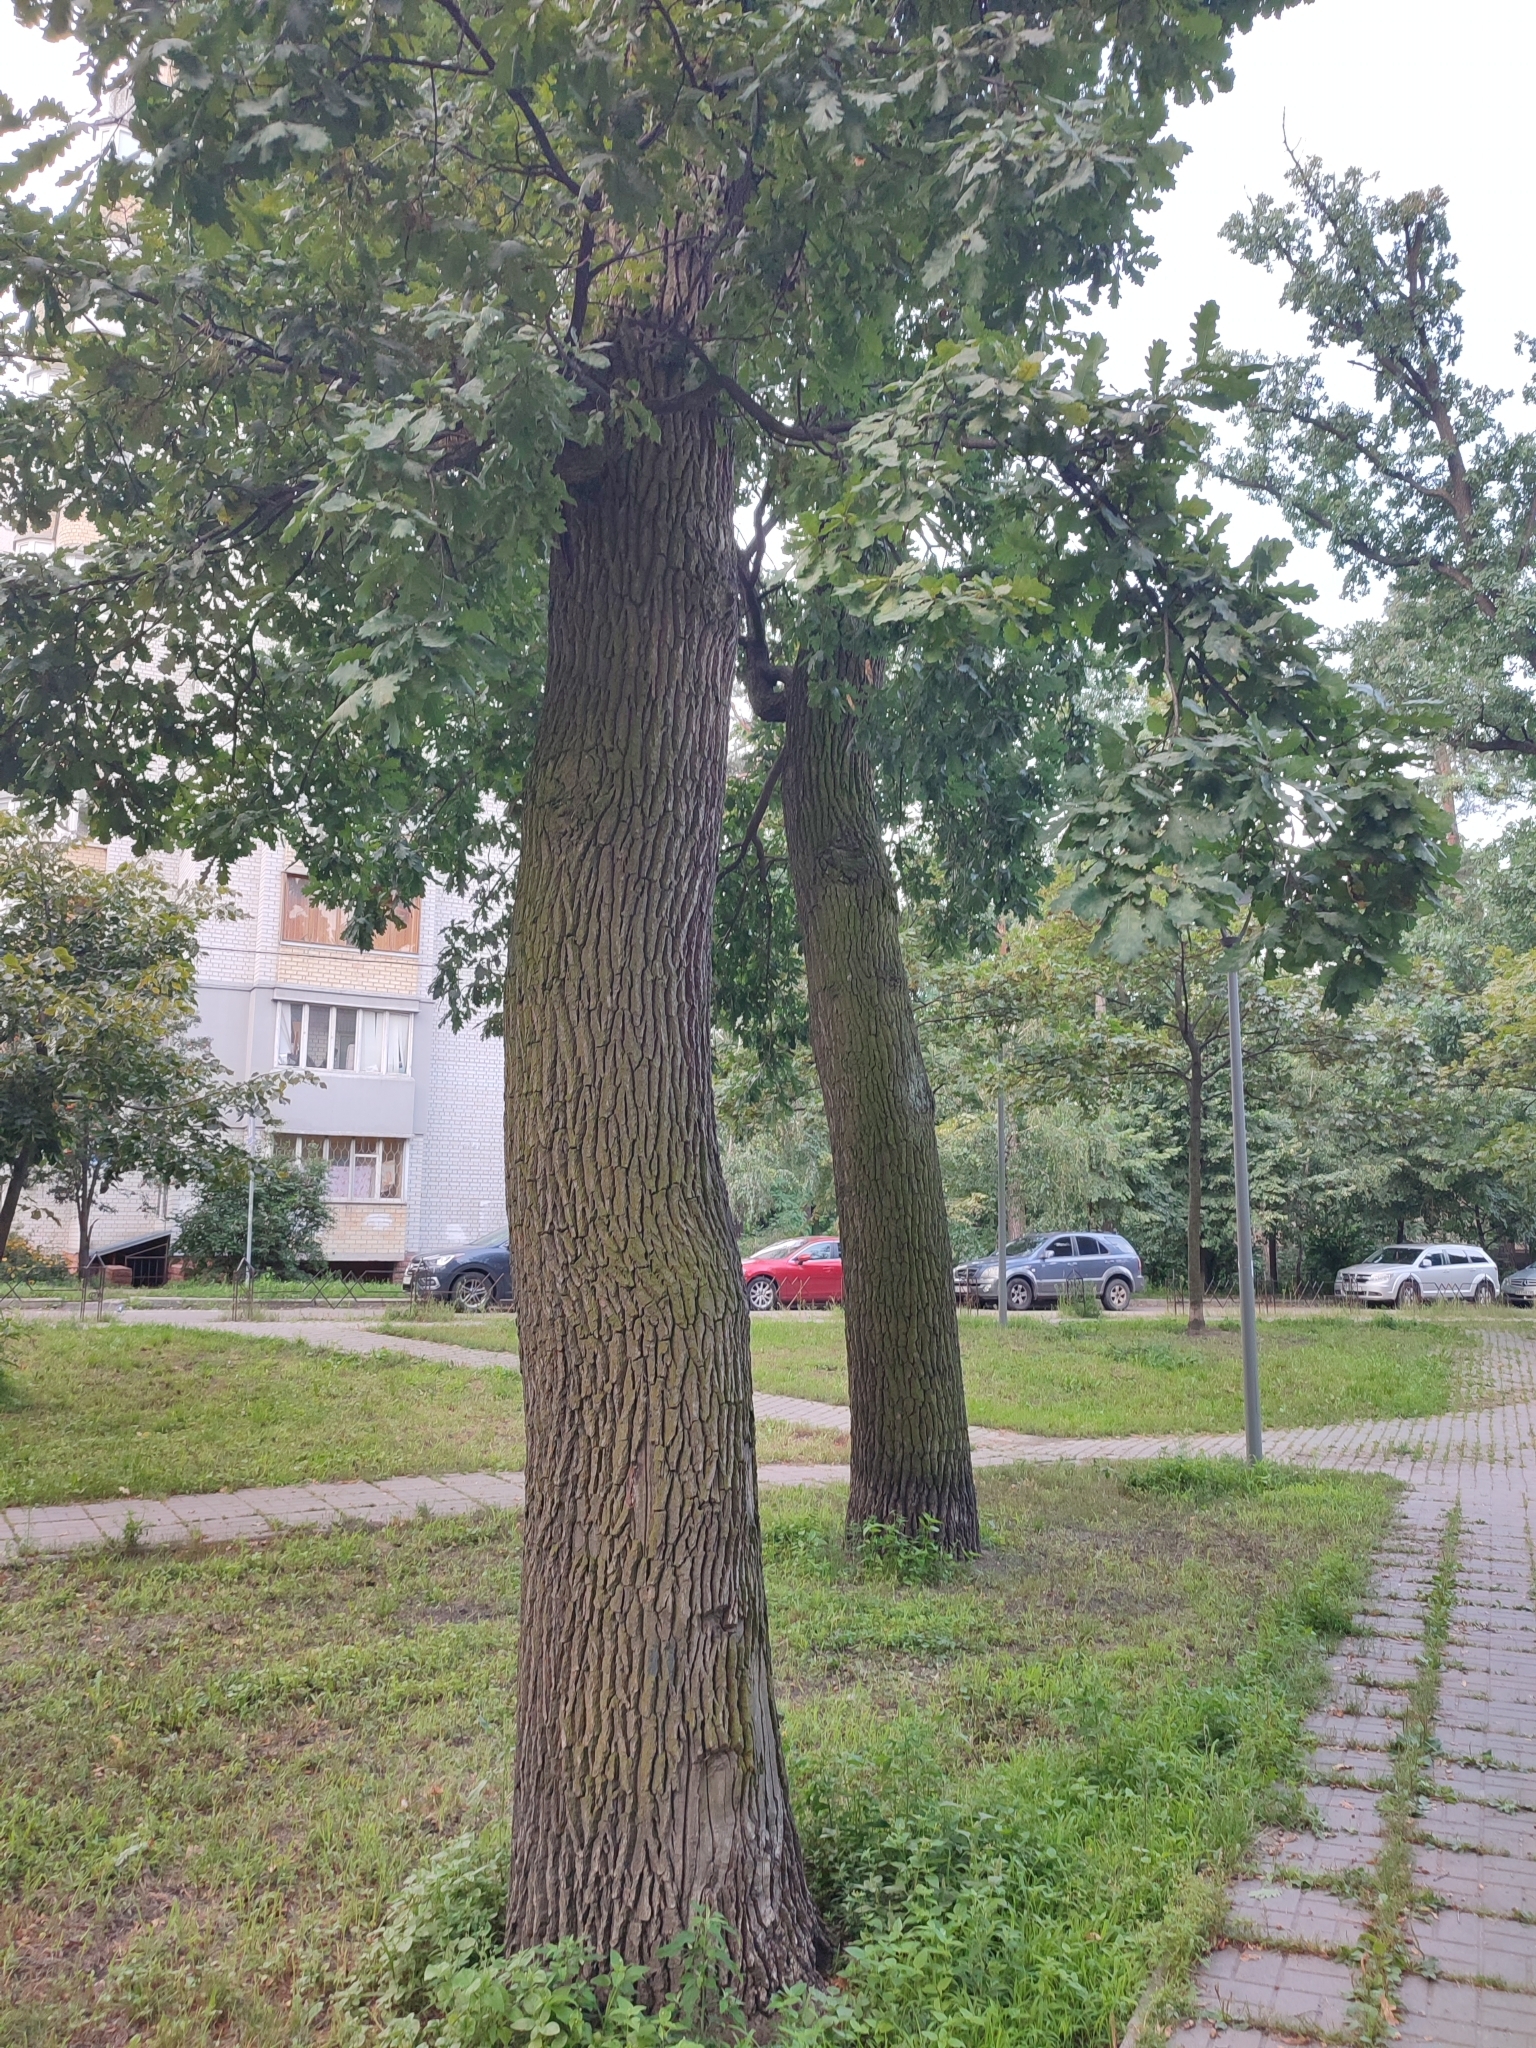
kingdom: Plantae
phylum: Tracheophyta
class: Magnoliopsida
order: Fagales
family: Fagaceae
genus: Quercus
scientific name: Quercus robur
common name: Pedunculate oak
